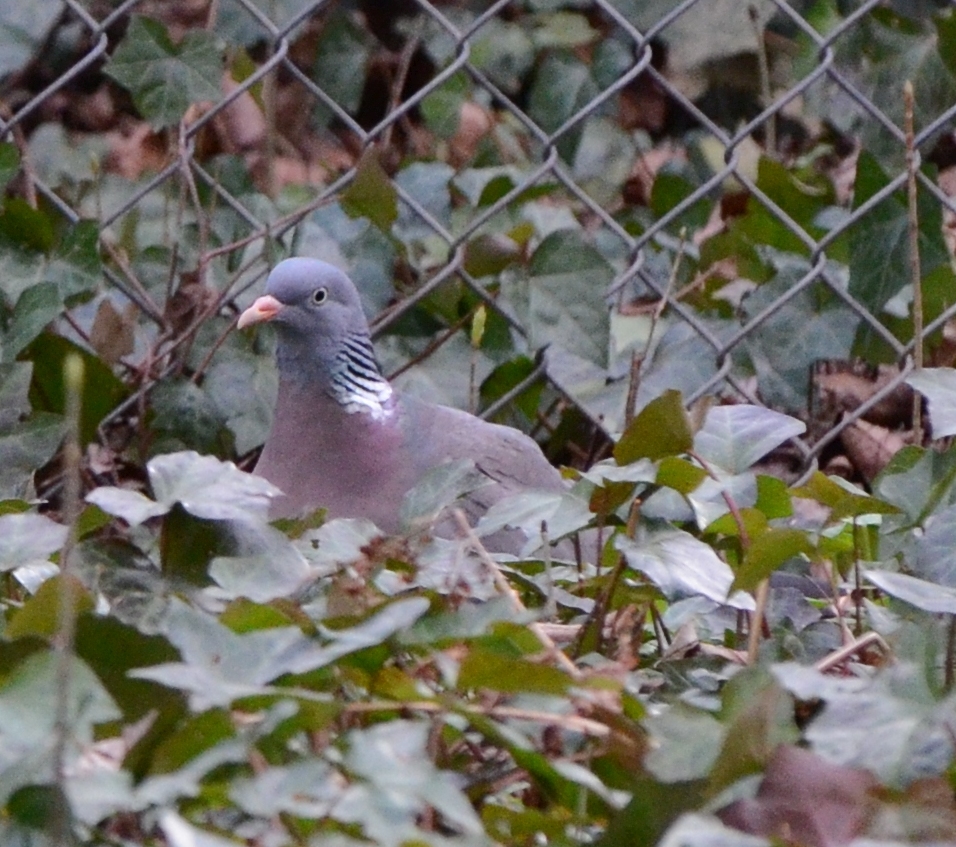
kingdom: Animalia
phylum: Chordata
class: Aves
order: Columbiformes
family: Columbidae
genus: Columba
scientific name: Columba palumbus
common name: Common wood pigeon
